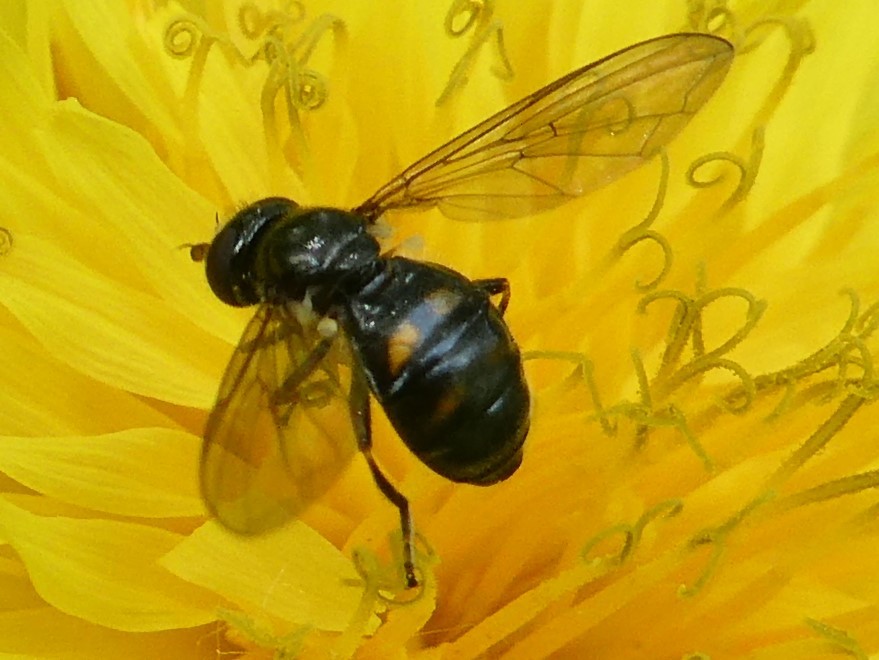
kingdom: Animalia
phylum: Arthropoda
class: Insecta
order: Diptera
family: Syrphidae
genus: Pipiza
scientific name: Pipiza quadrimaculata
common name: Four-spotted pipiza
